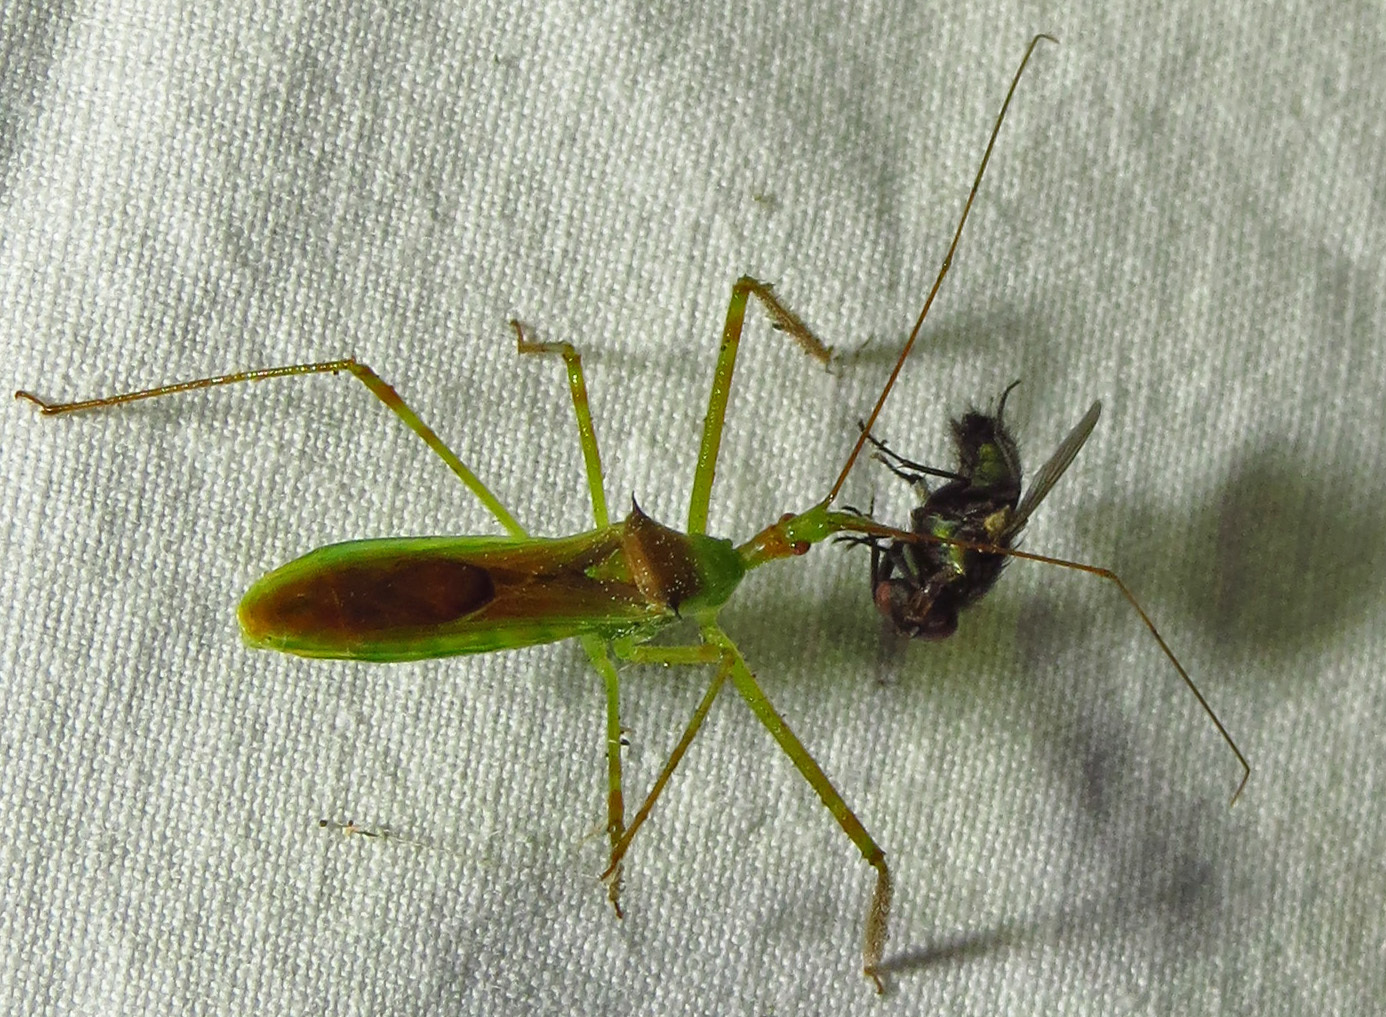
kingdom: Animalia
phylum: Arthropoda
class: Insecta
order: Hemiptera
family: Reduviidae
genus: Zelus
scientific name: Zelus luridus
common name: Pale green assassin bug
